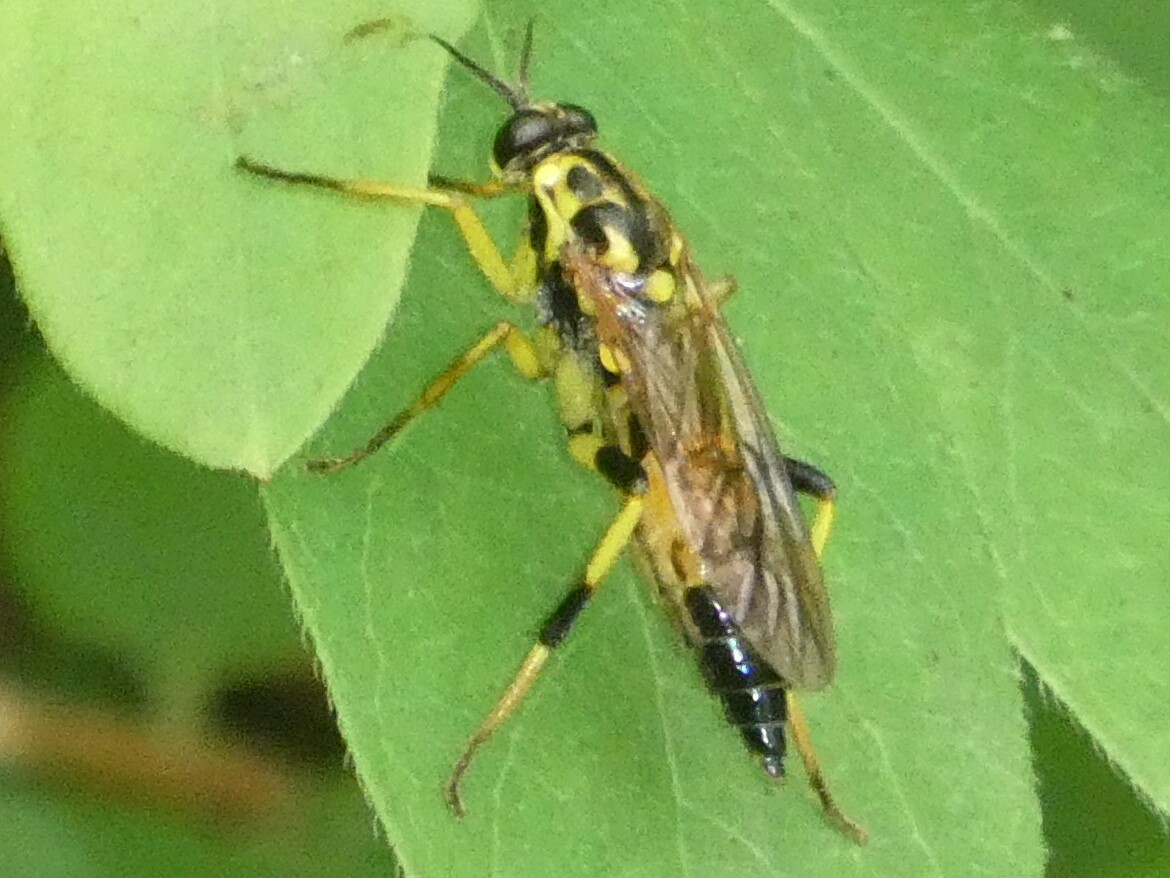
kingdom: Animalia
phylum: Arthropoda
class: Insecta
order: Diptera
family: Xylomyidae
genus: Xylomya
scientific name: Xylomya terminalis
